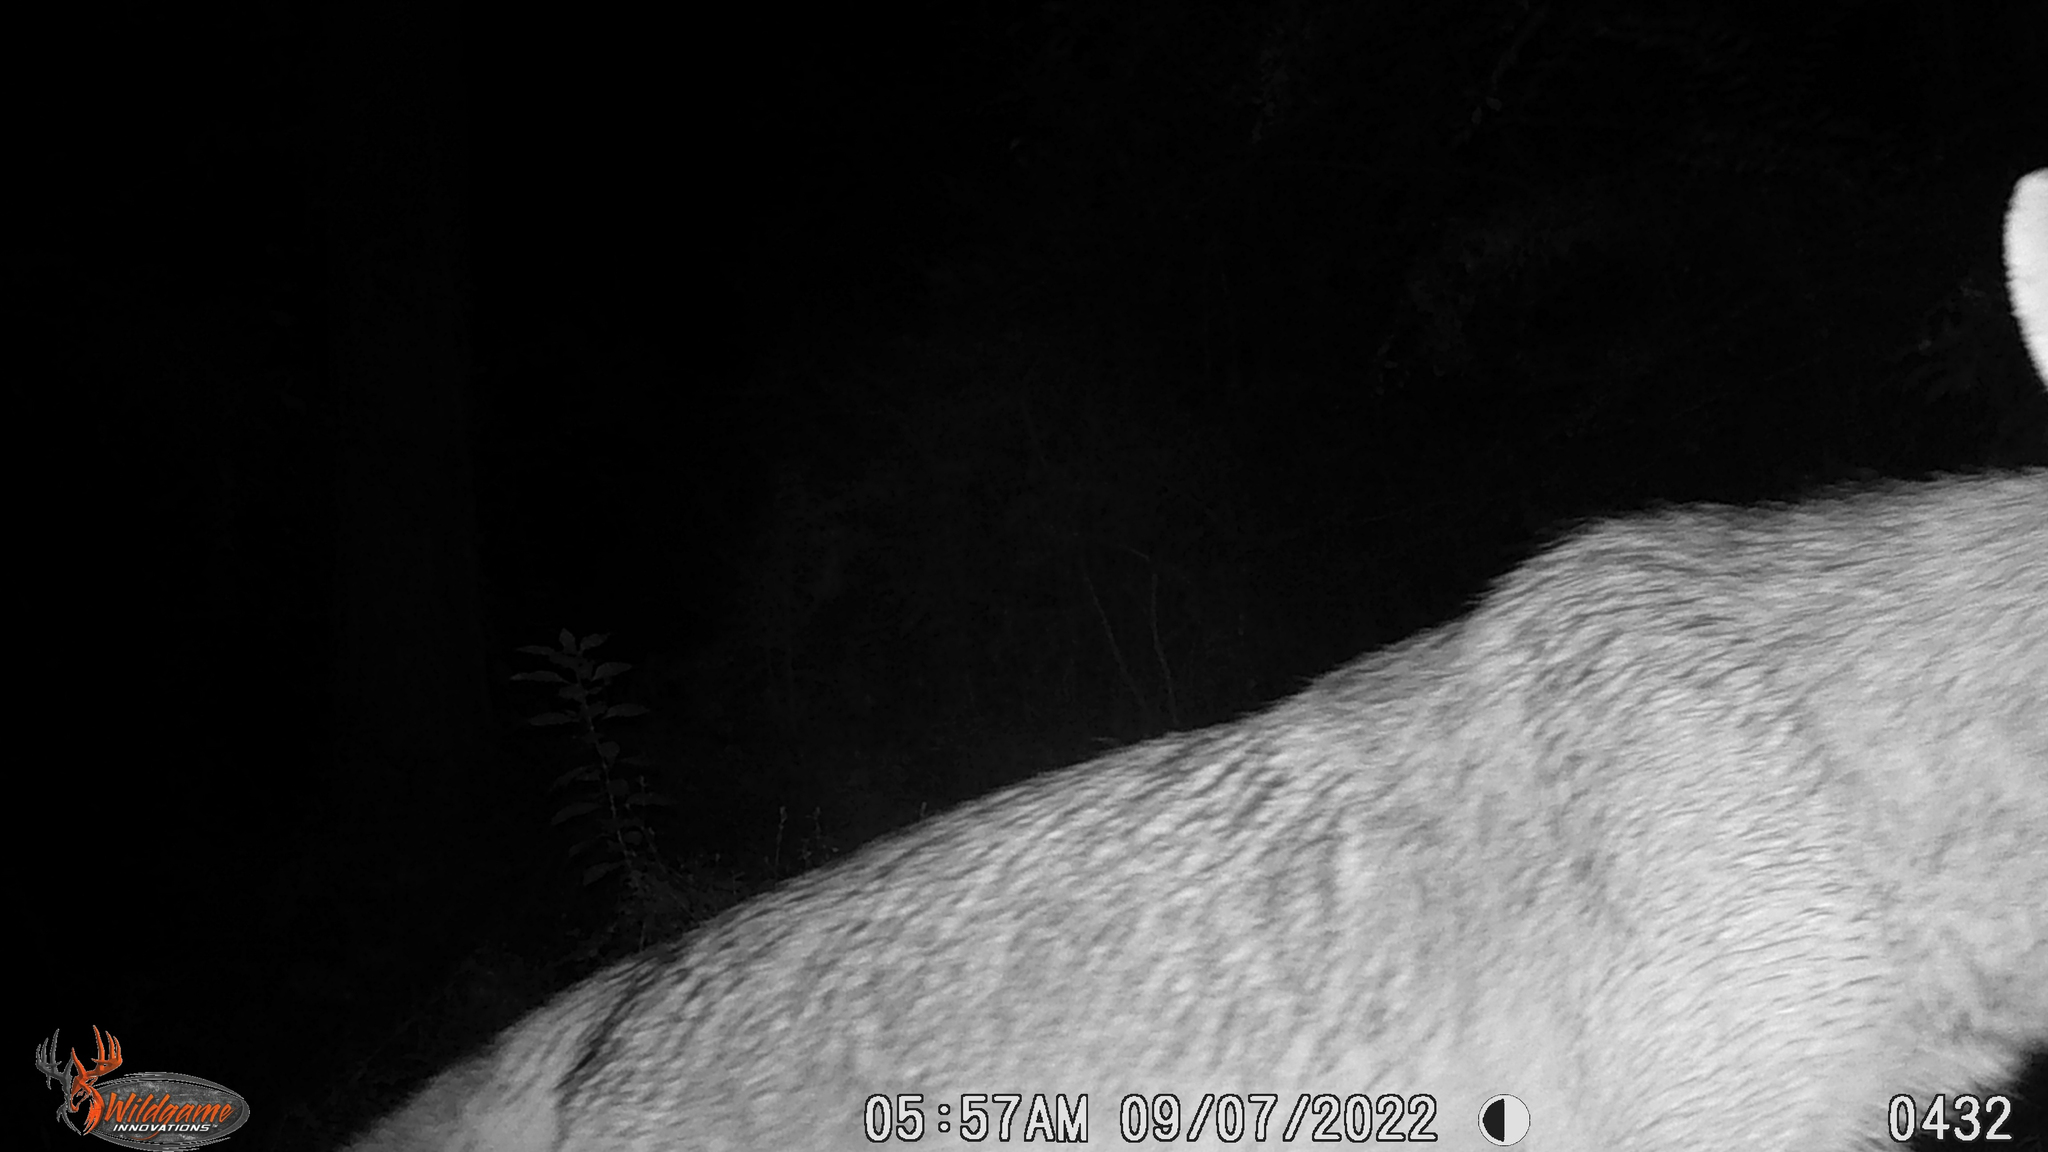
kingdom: Animalia
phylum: Chordata
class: Mammalia
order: Carnivora
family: Canidae
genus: Urocyon
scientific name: Urocyon cinereoargenteus
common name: Gray fox
